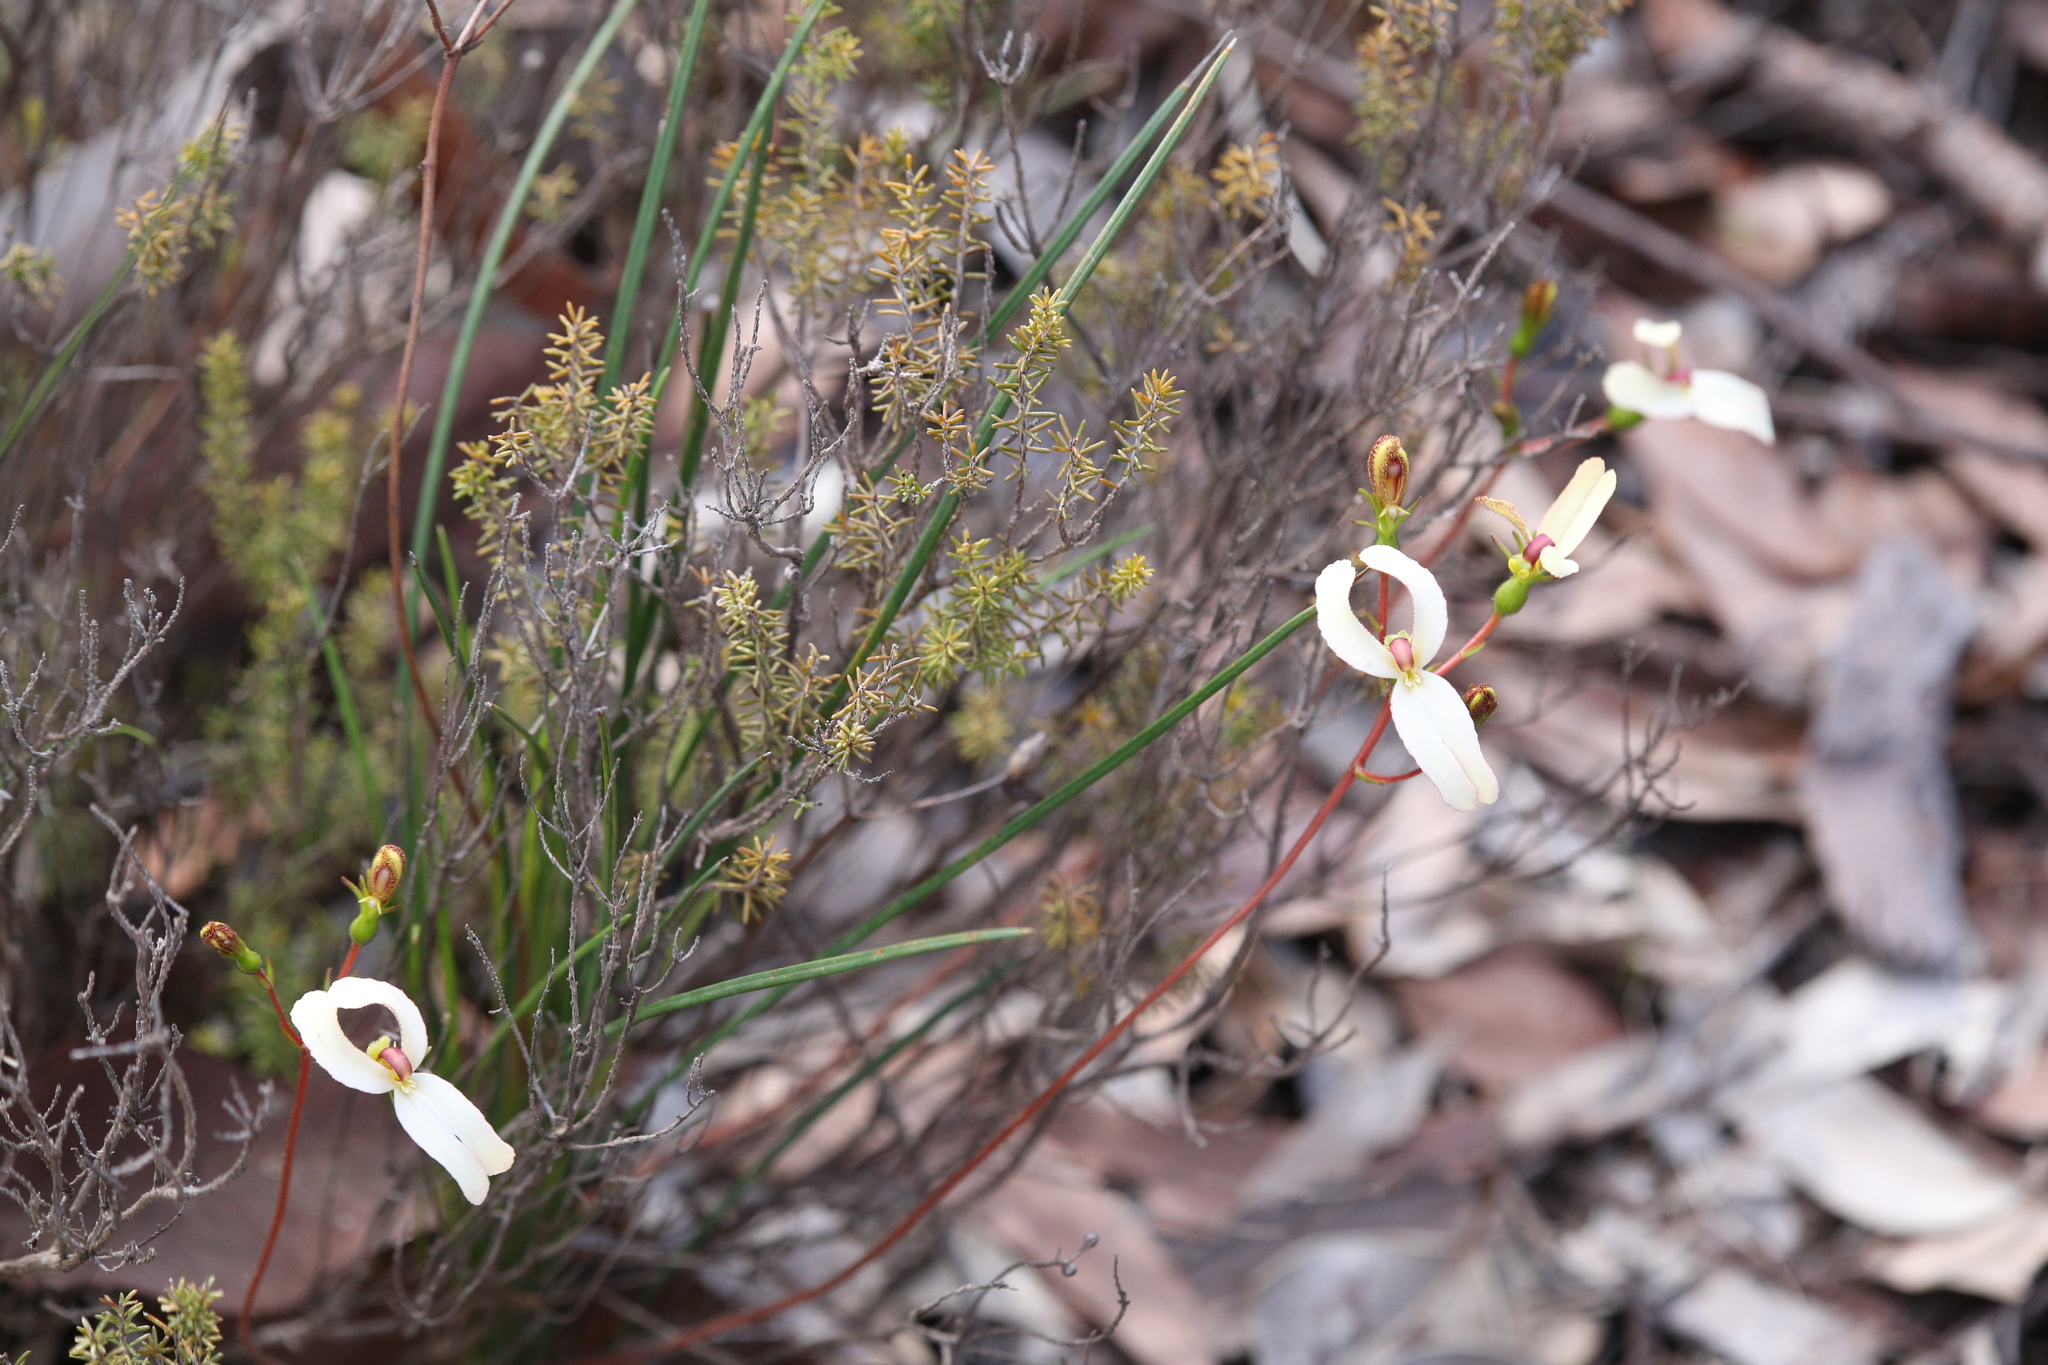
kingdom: Plantae
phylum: Tracheophyta
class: Magnoliopsida
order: Asterales
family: Stylidiaceae
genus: Stylidium
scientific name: Stylidium schoenoides
